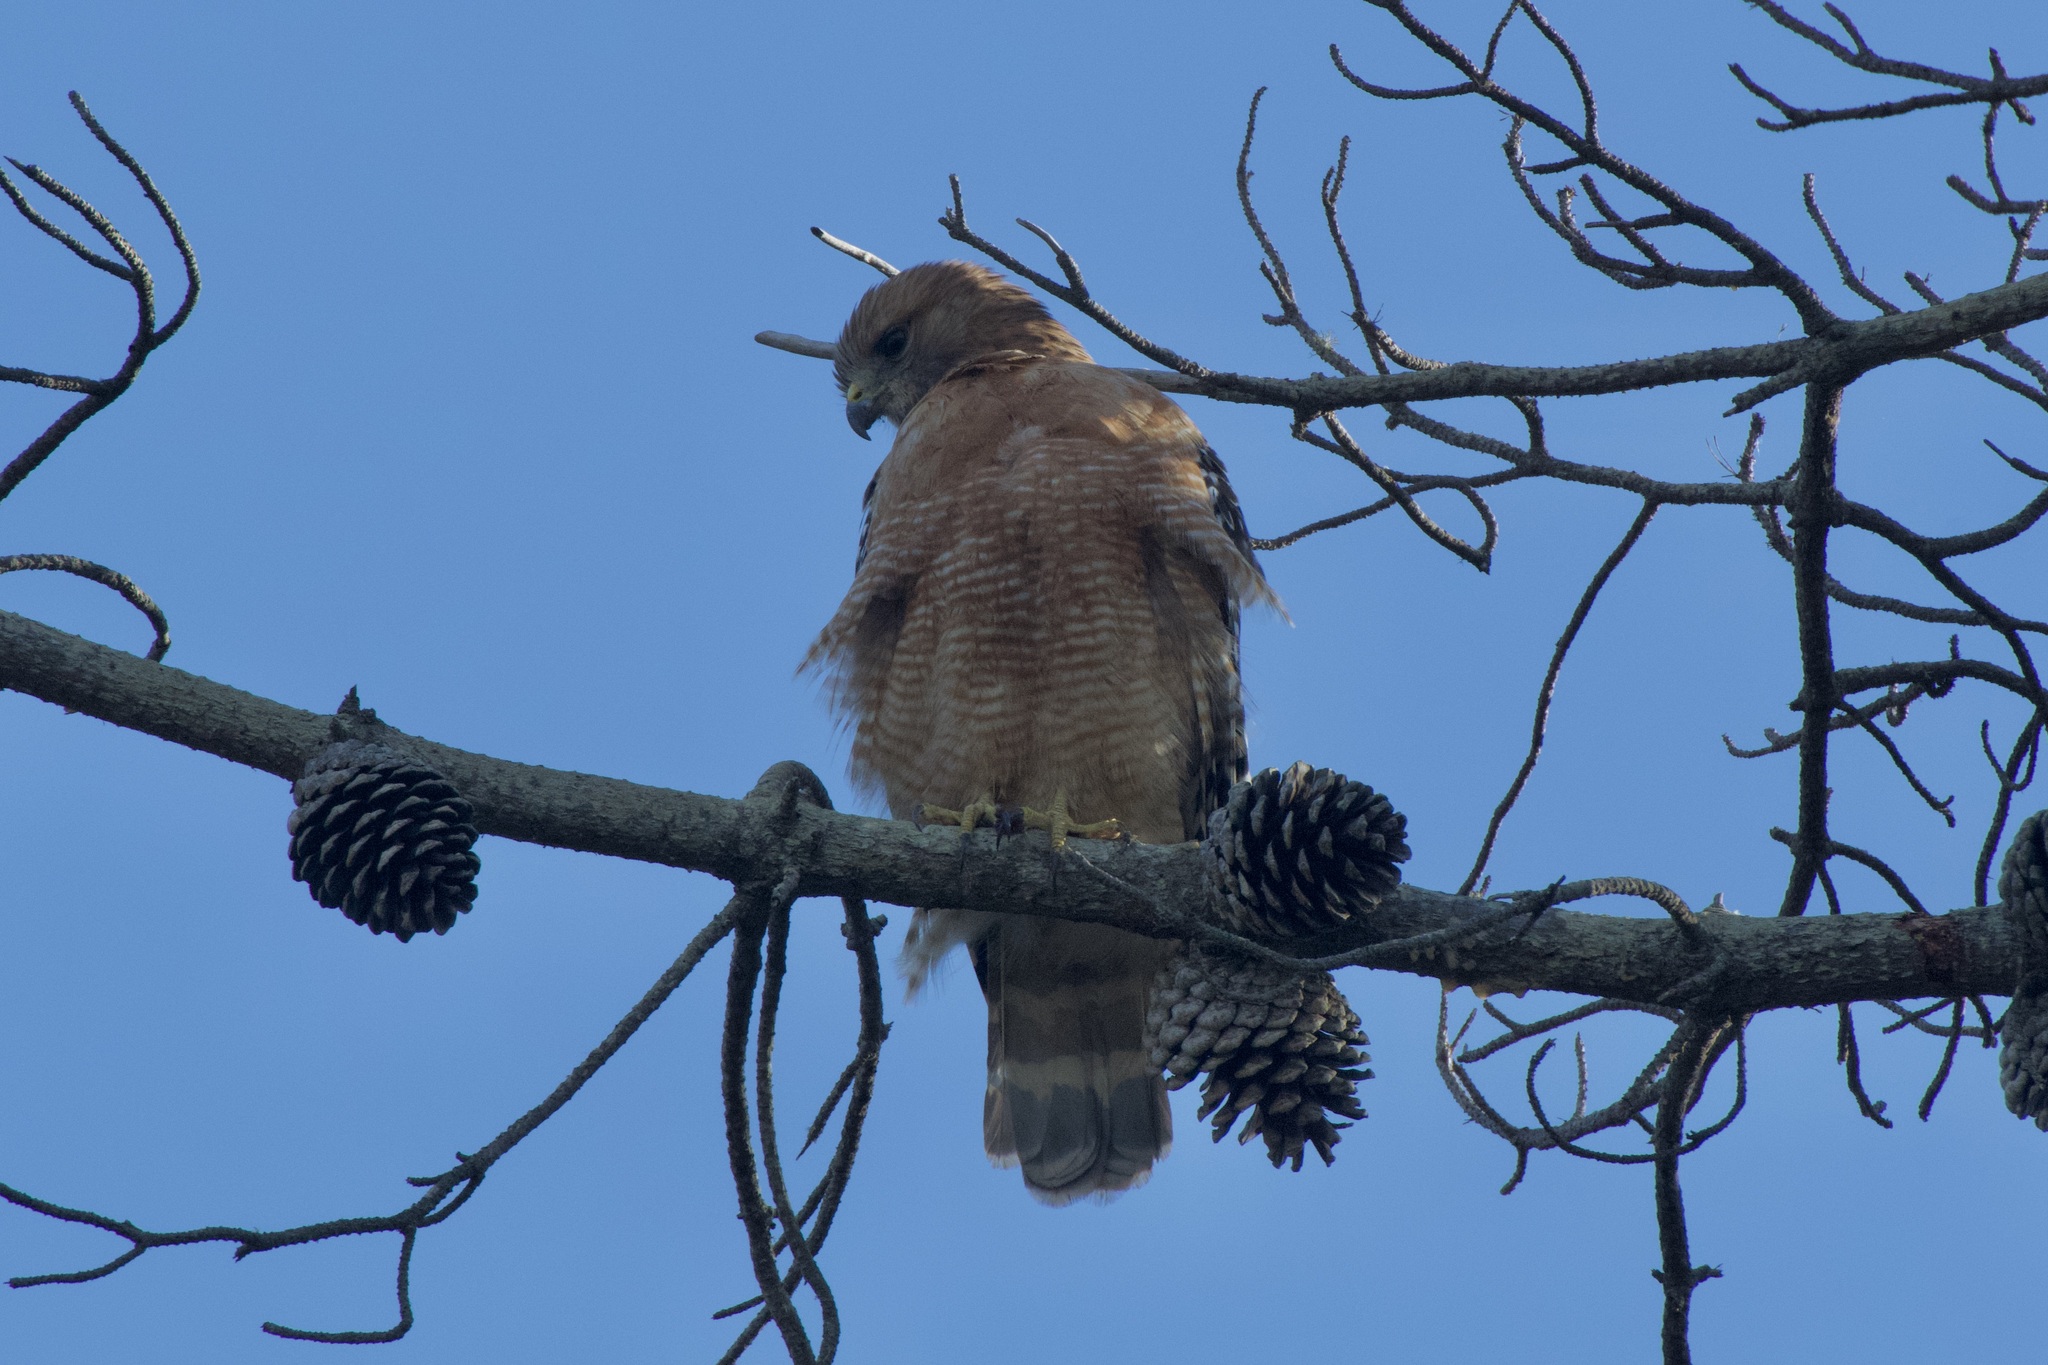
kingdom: Animalia
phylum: Chordata
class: Aves
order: Accipitriformes
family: Accipitridae
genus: Buteo
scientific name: Buteo lineatus
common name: Red-shouldered hawk
